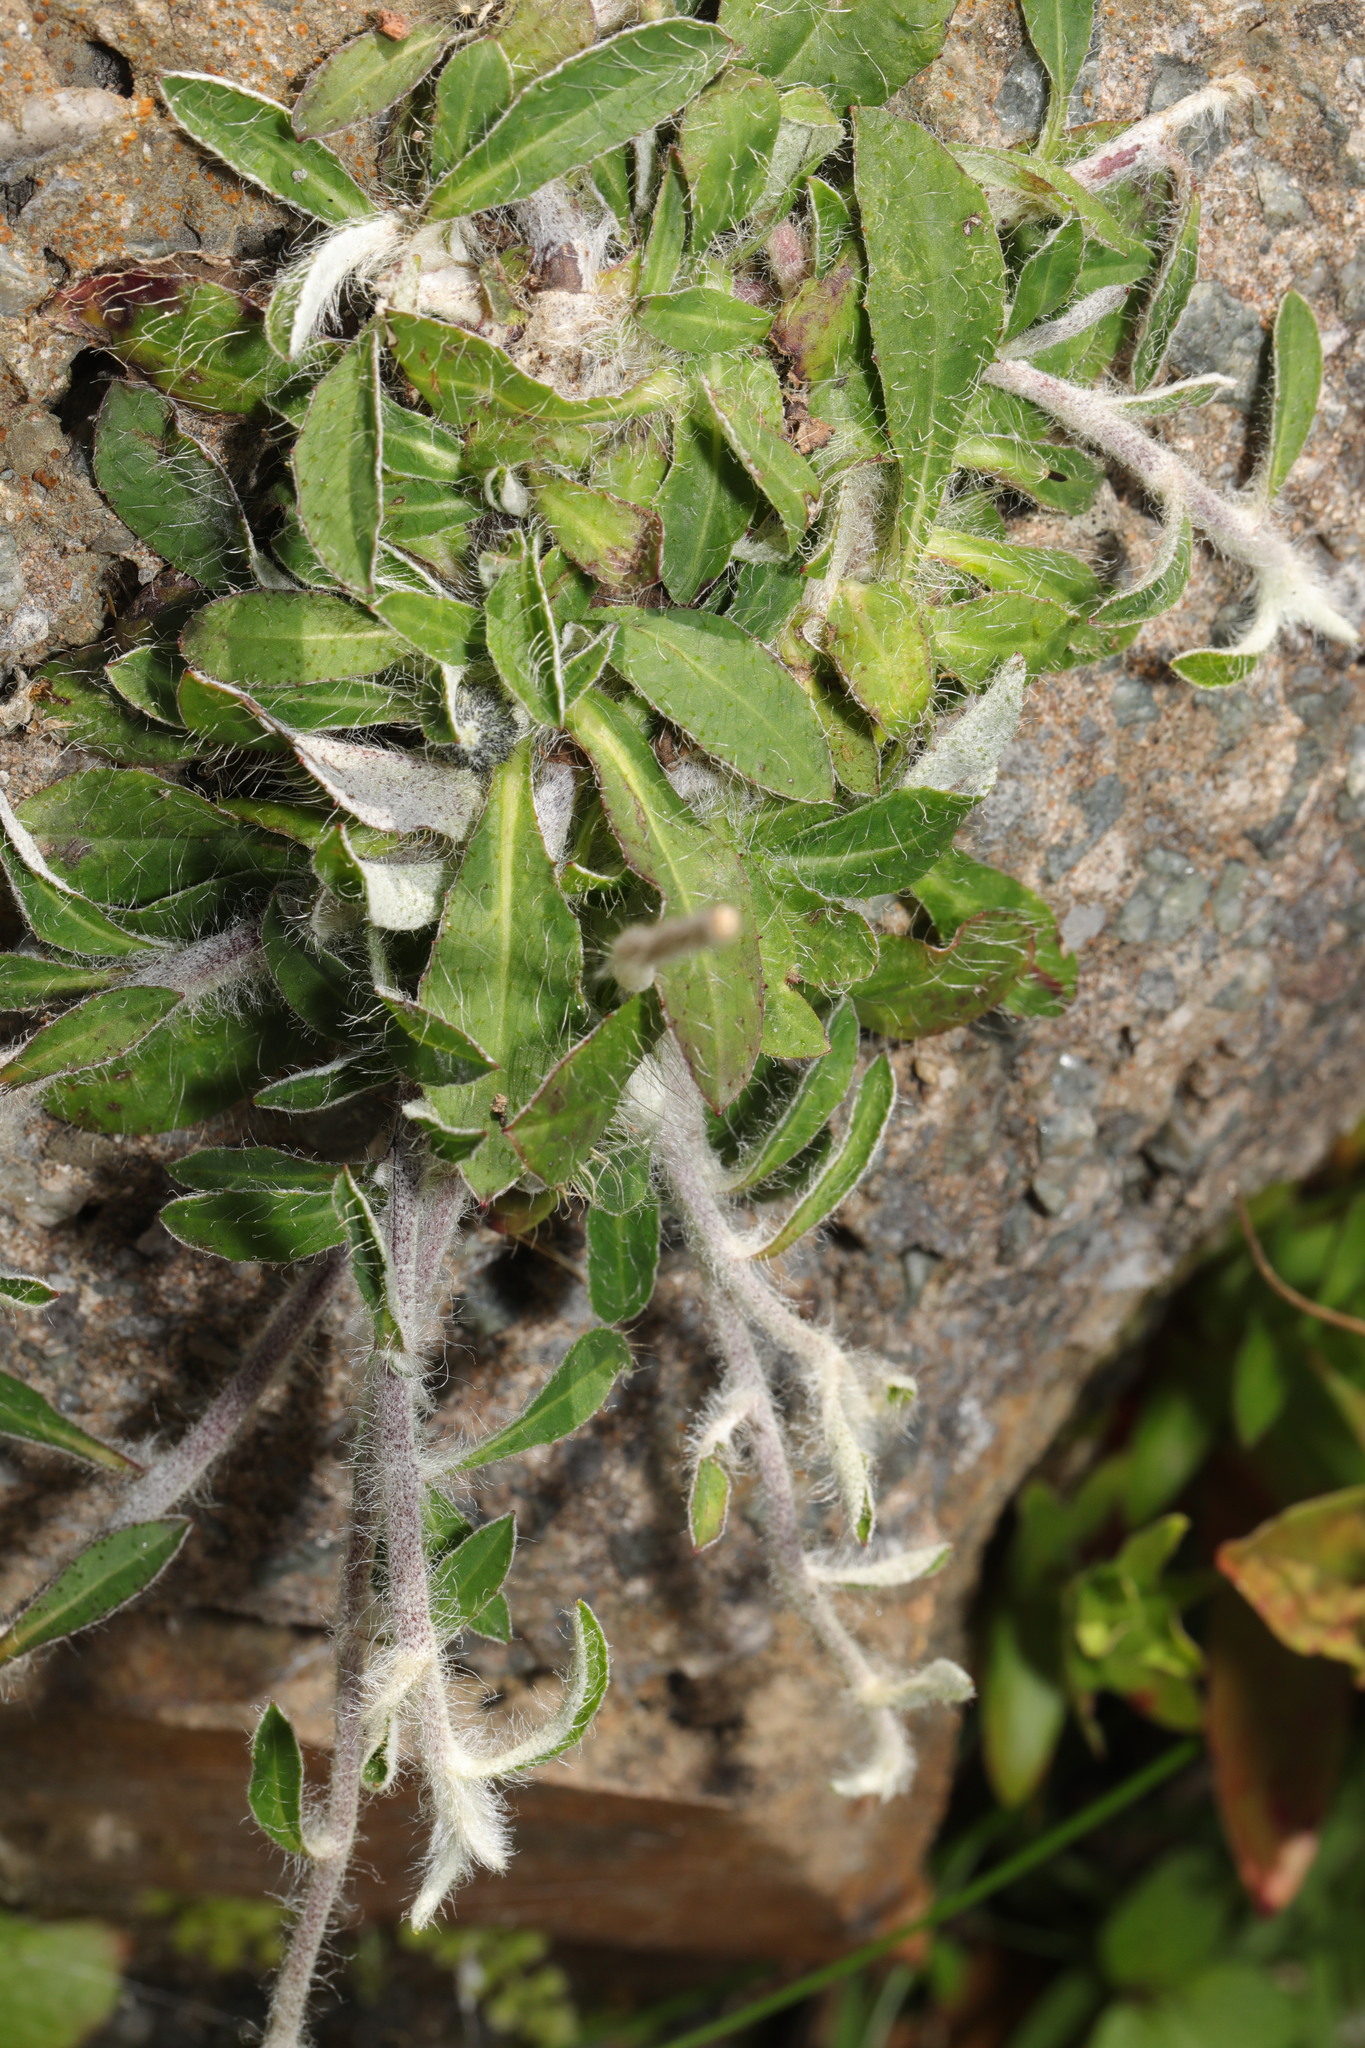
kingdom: Plantae
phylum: Tracheophyta
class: Magnoliopsida
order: Asterales
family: Asteraceae
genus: Pilosella
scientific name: Pilosella officinarum
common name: Mouse-ear hawkweed
